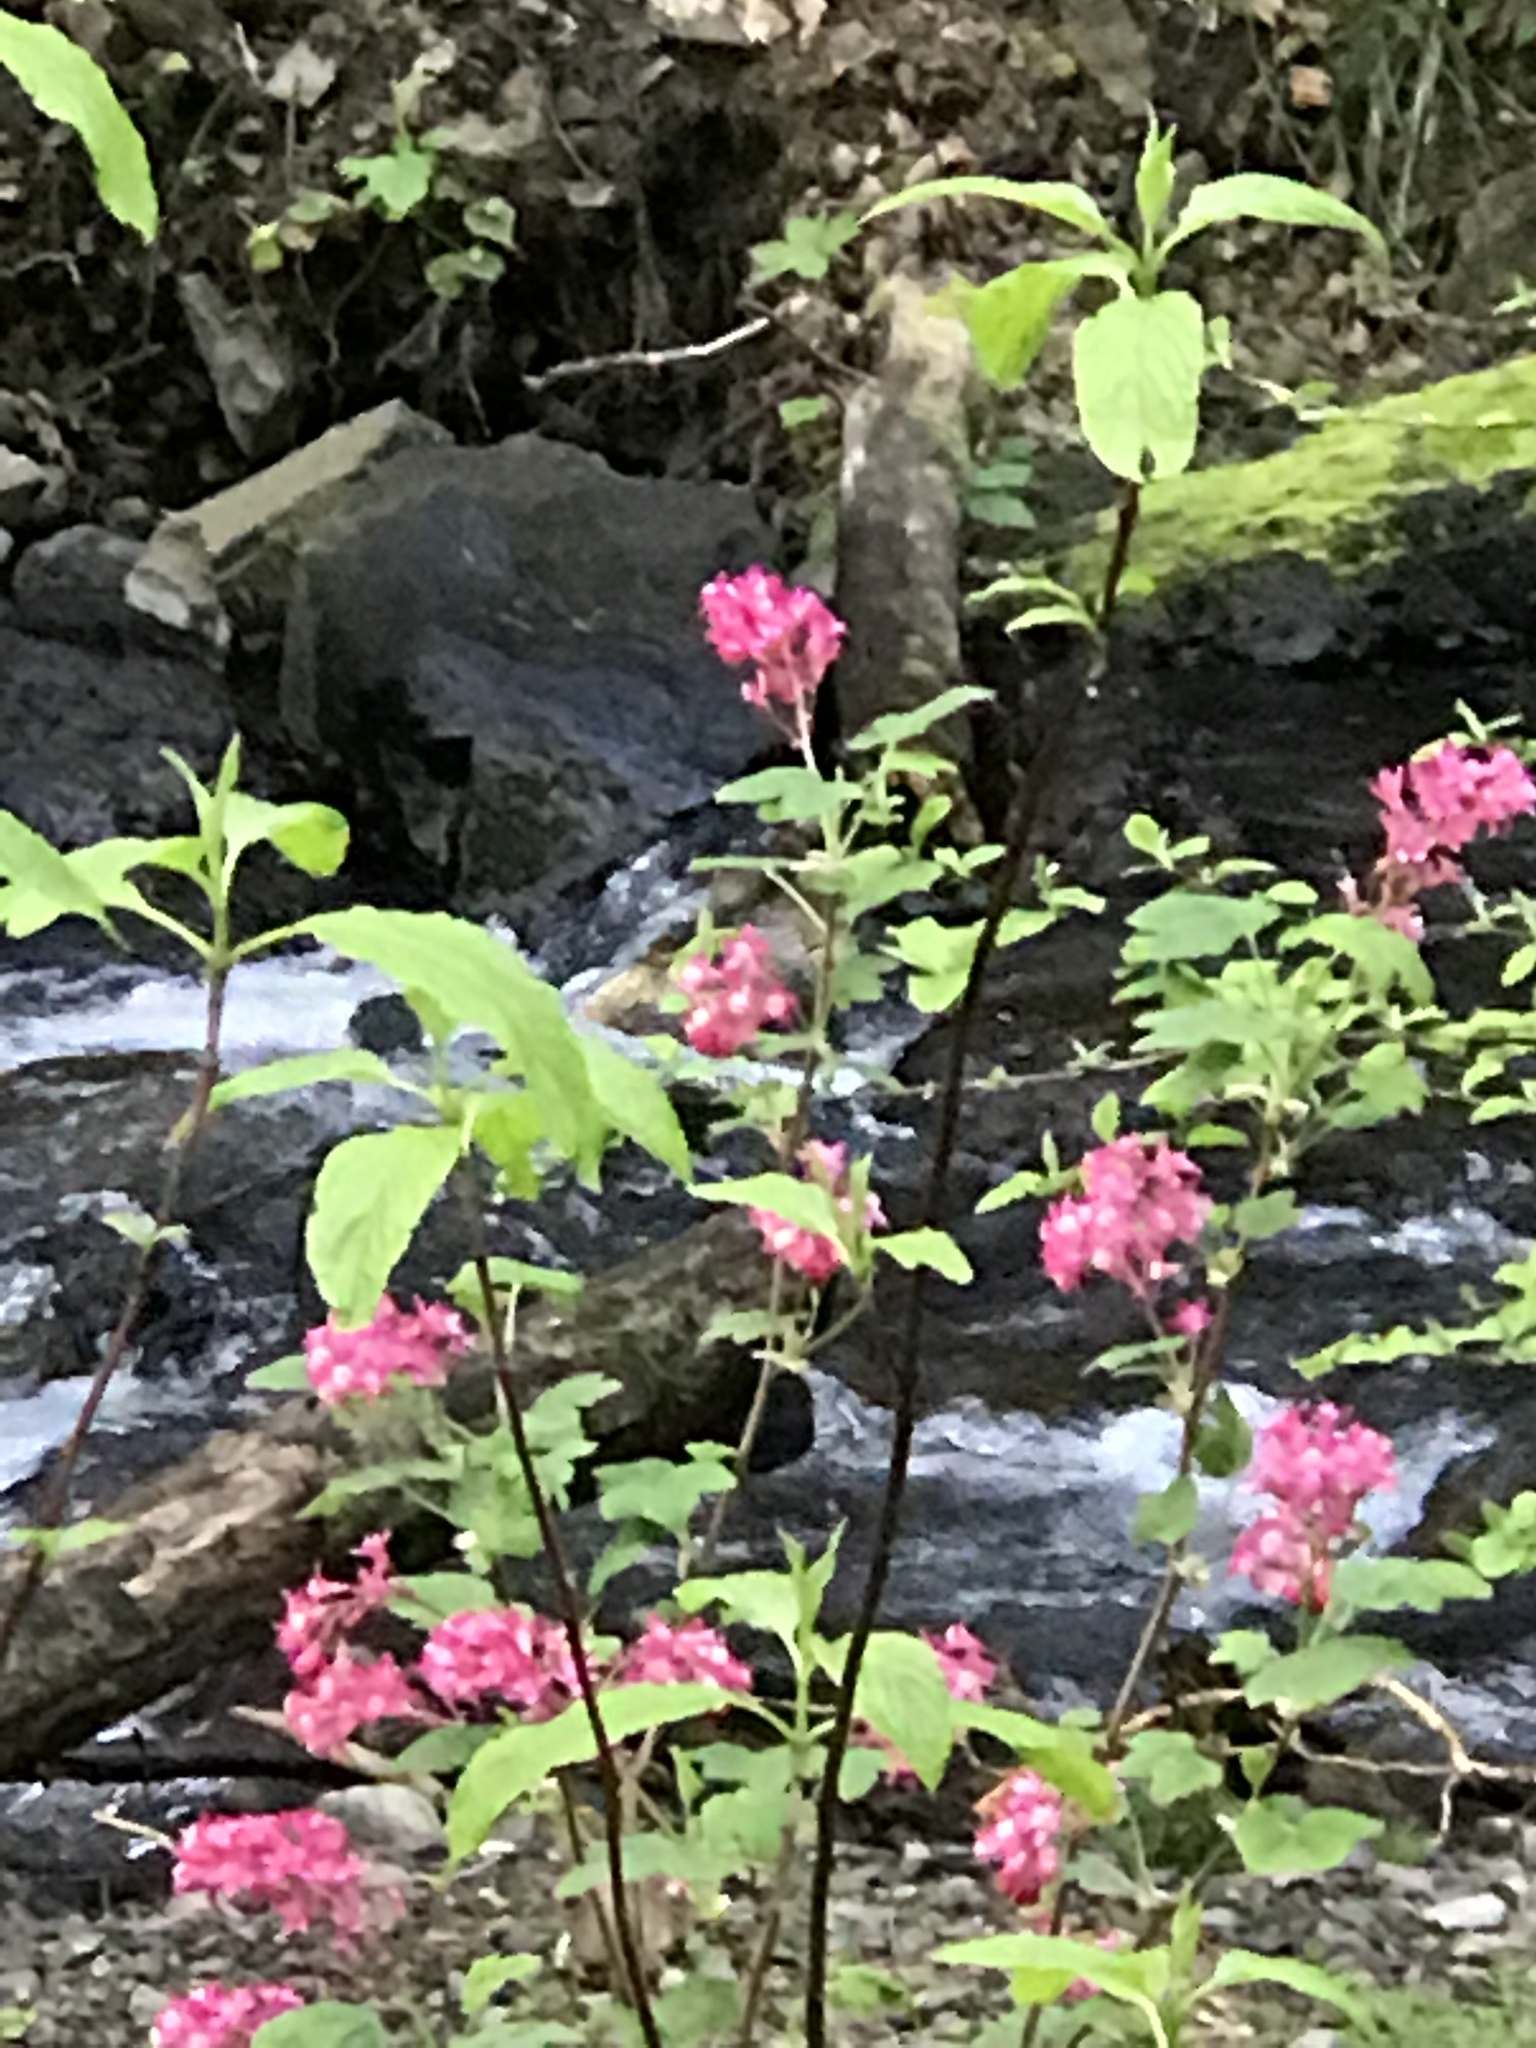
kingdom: Plantae
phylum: Tracheophyta
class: Magnoliopsida
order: Saxifragales
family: Grossulariaceae
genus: Ribes
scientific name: Ribes sanguineum
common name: Flowering currant
